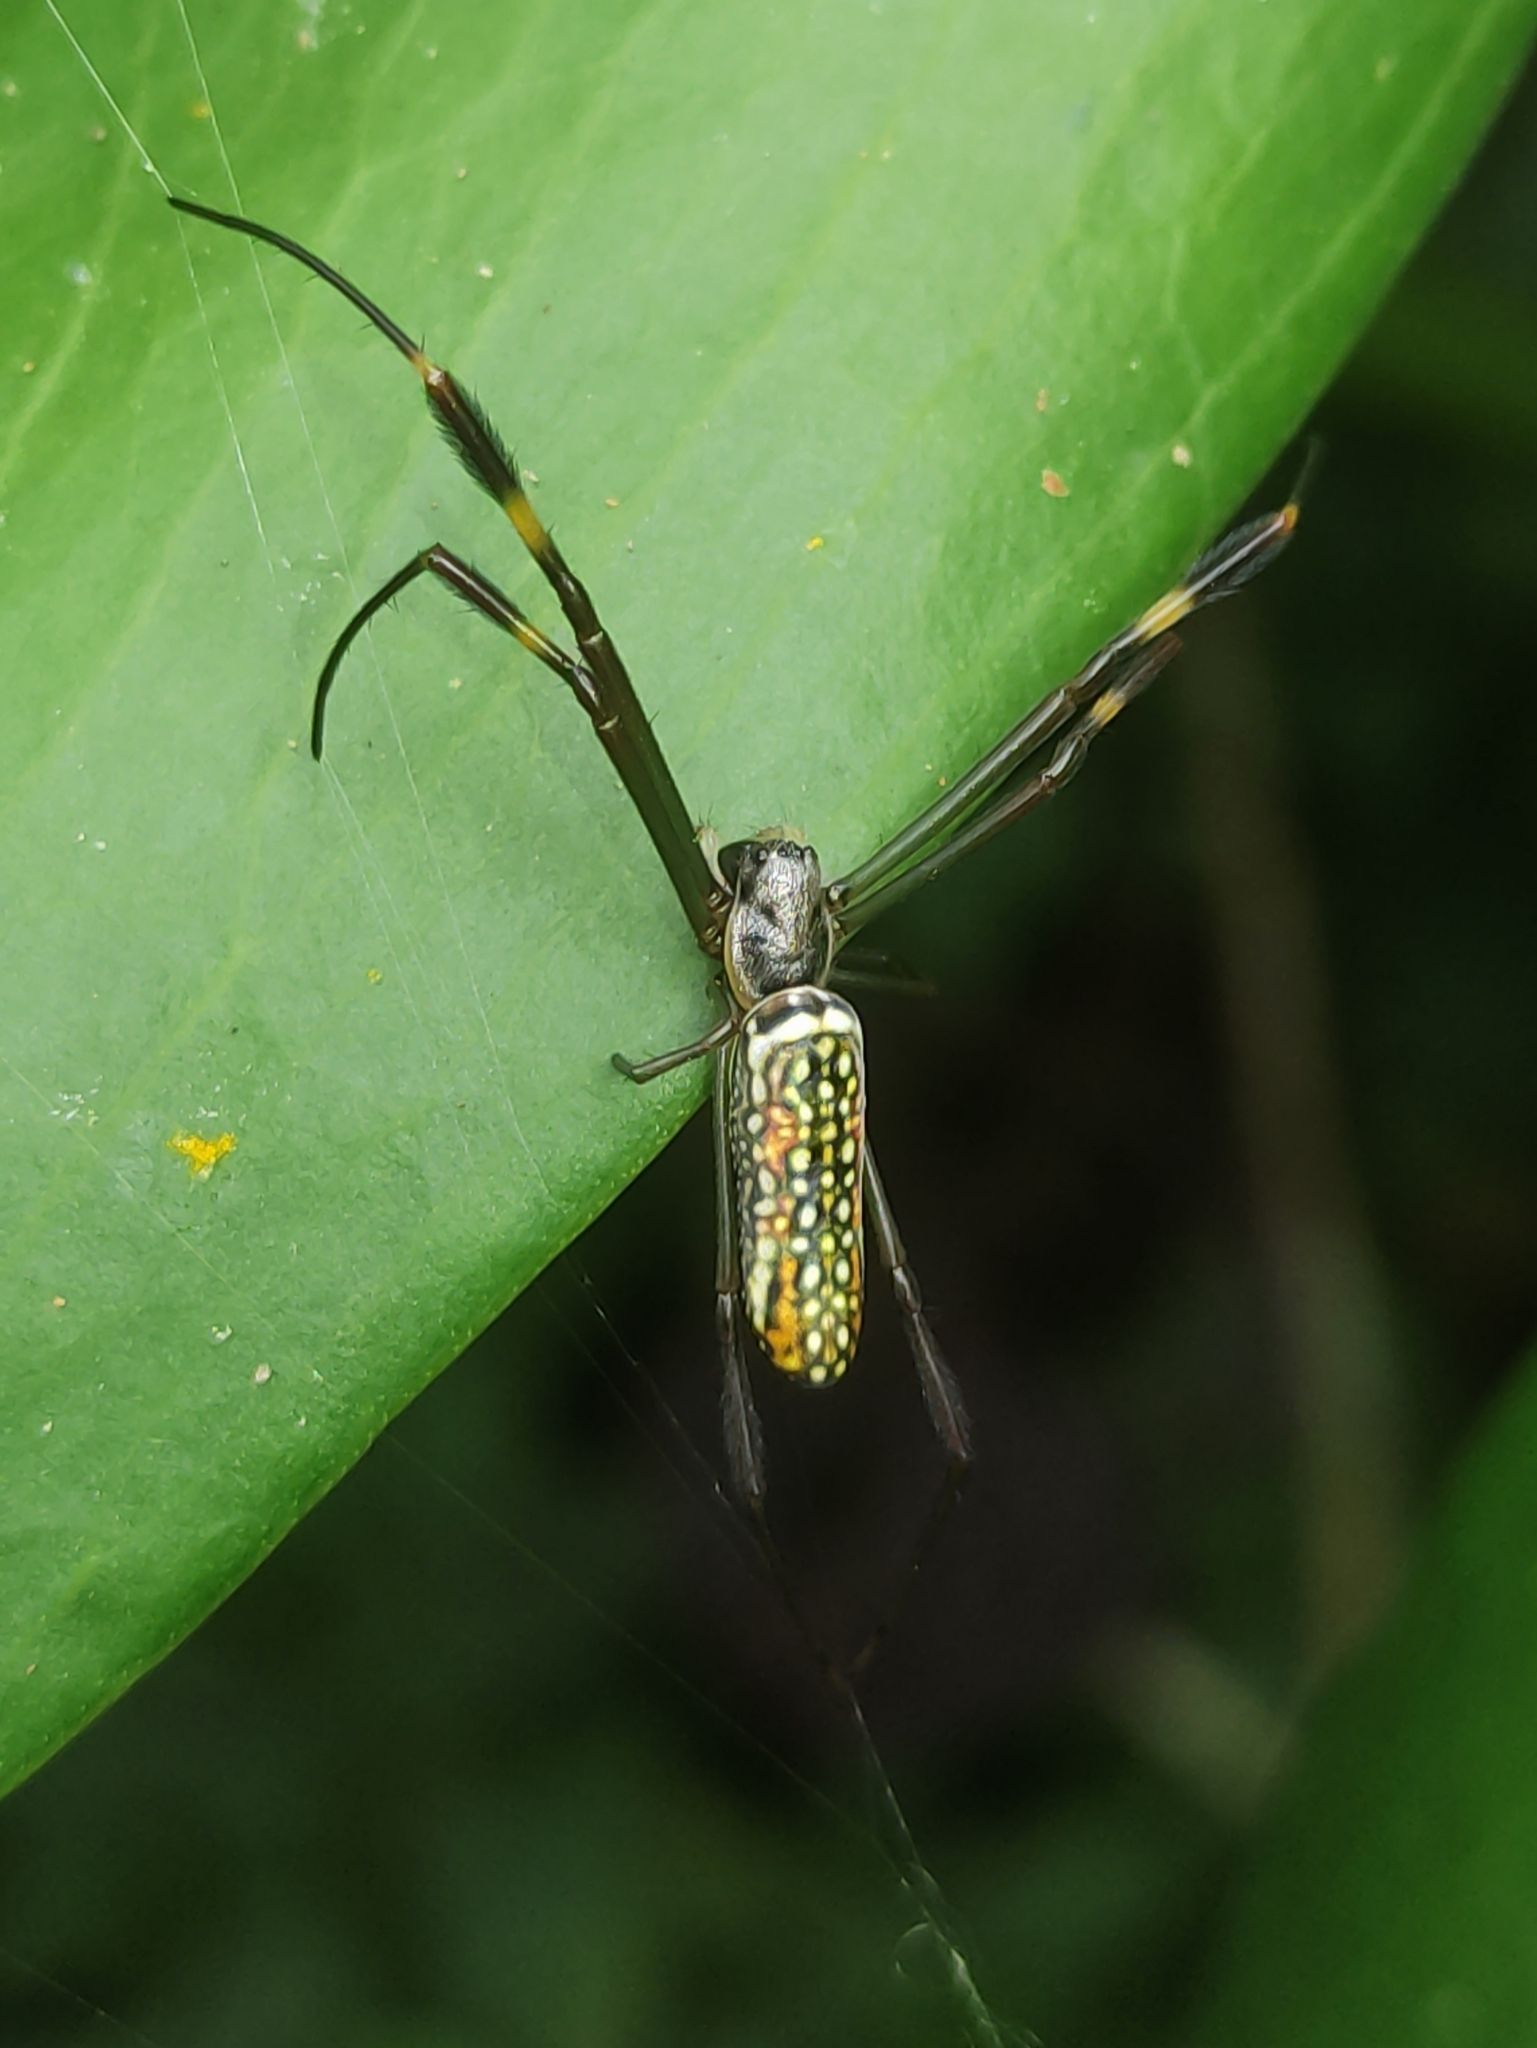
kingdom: Animalia
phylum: Arthropoda
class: Arachnida
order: Araneae
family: Araneidae
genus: Trichonephila
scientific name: Trichonephila clavipes
